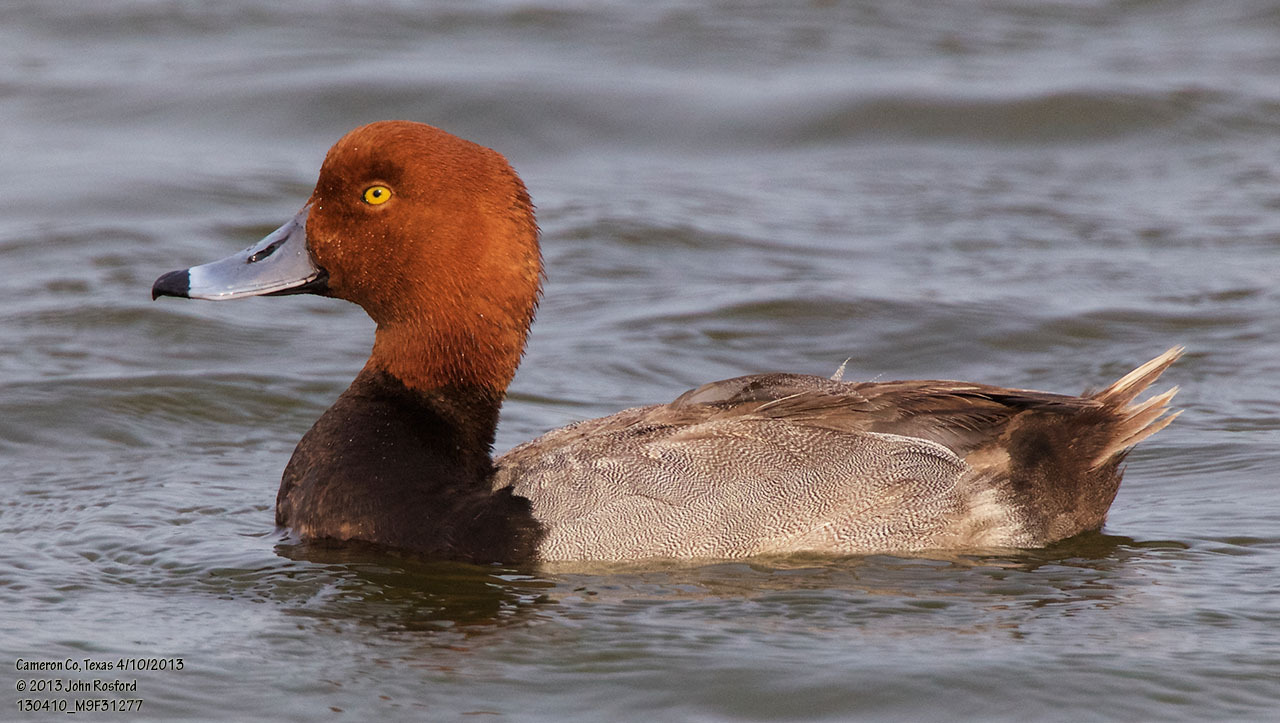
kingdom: Animalia
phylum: Chordata
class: Aves
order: Anseriformes
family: Anatidae
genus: Aythya
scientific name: Aythya americana
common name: Redhead
